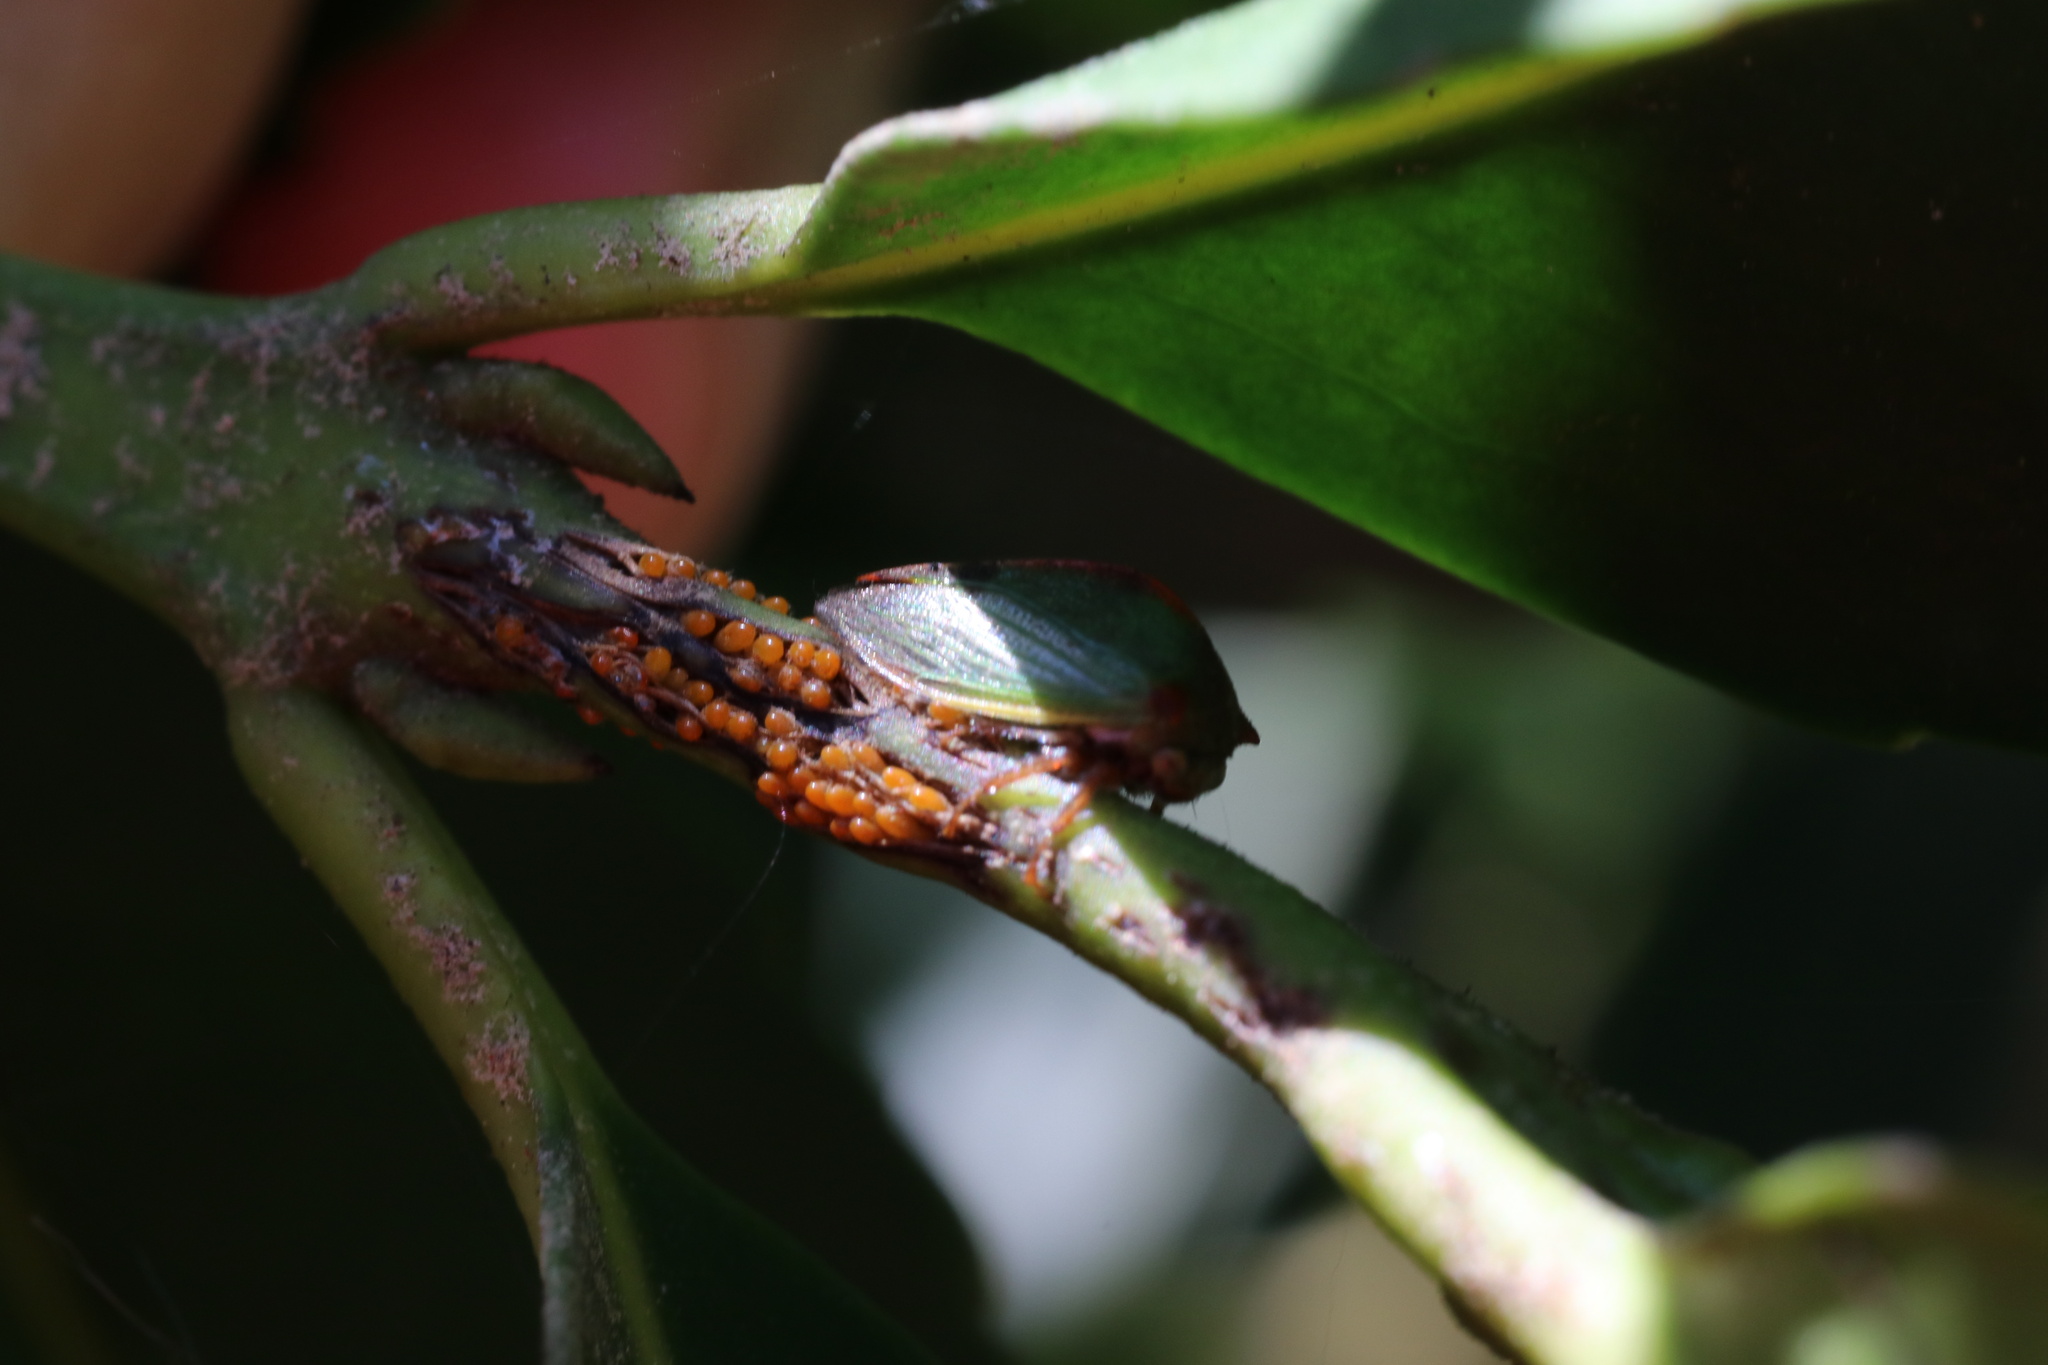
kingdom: Animalia
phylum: Arthropoda
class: Insecta
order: Hemiptera
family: Membracidae
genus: Alchisme
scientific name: Alchisme rubrocostata
